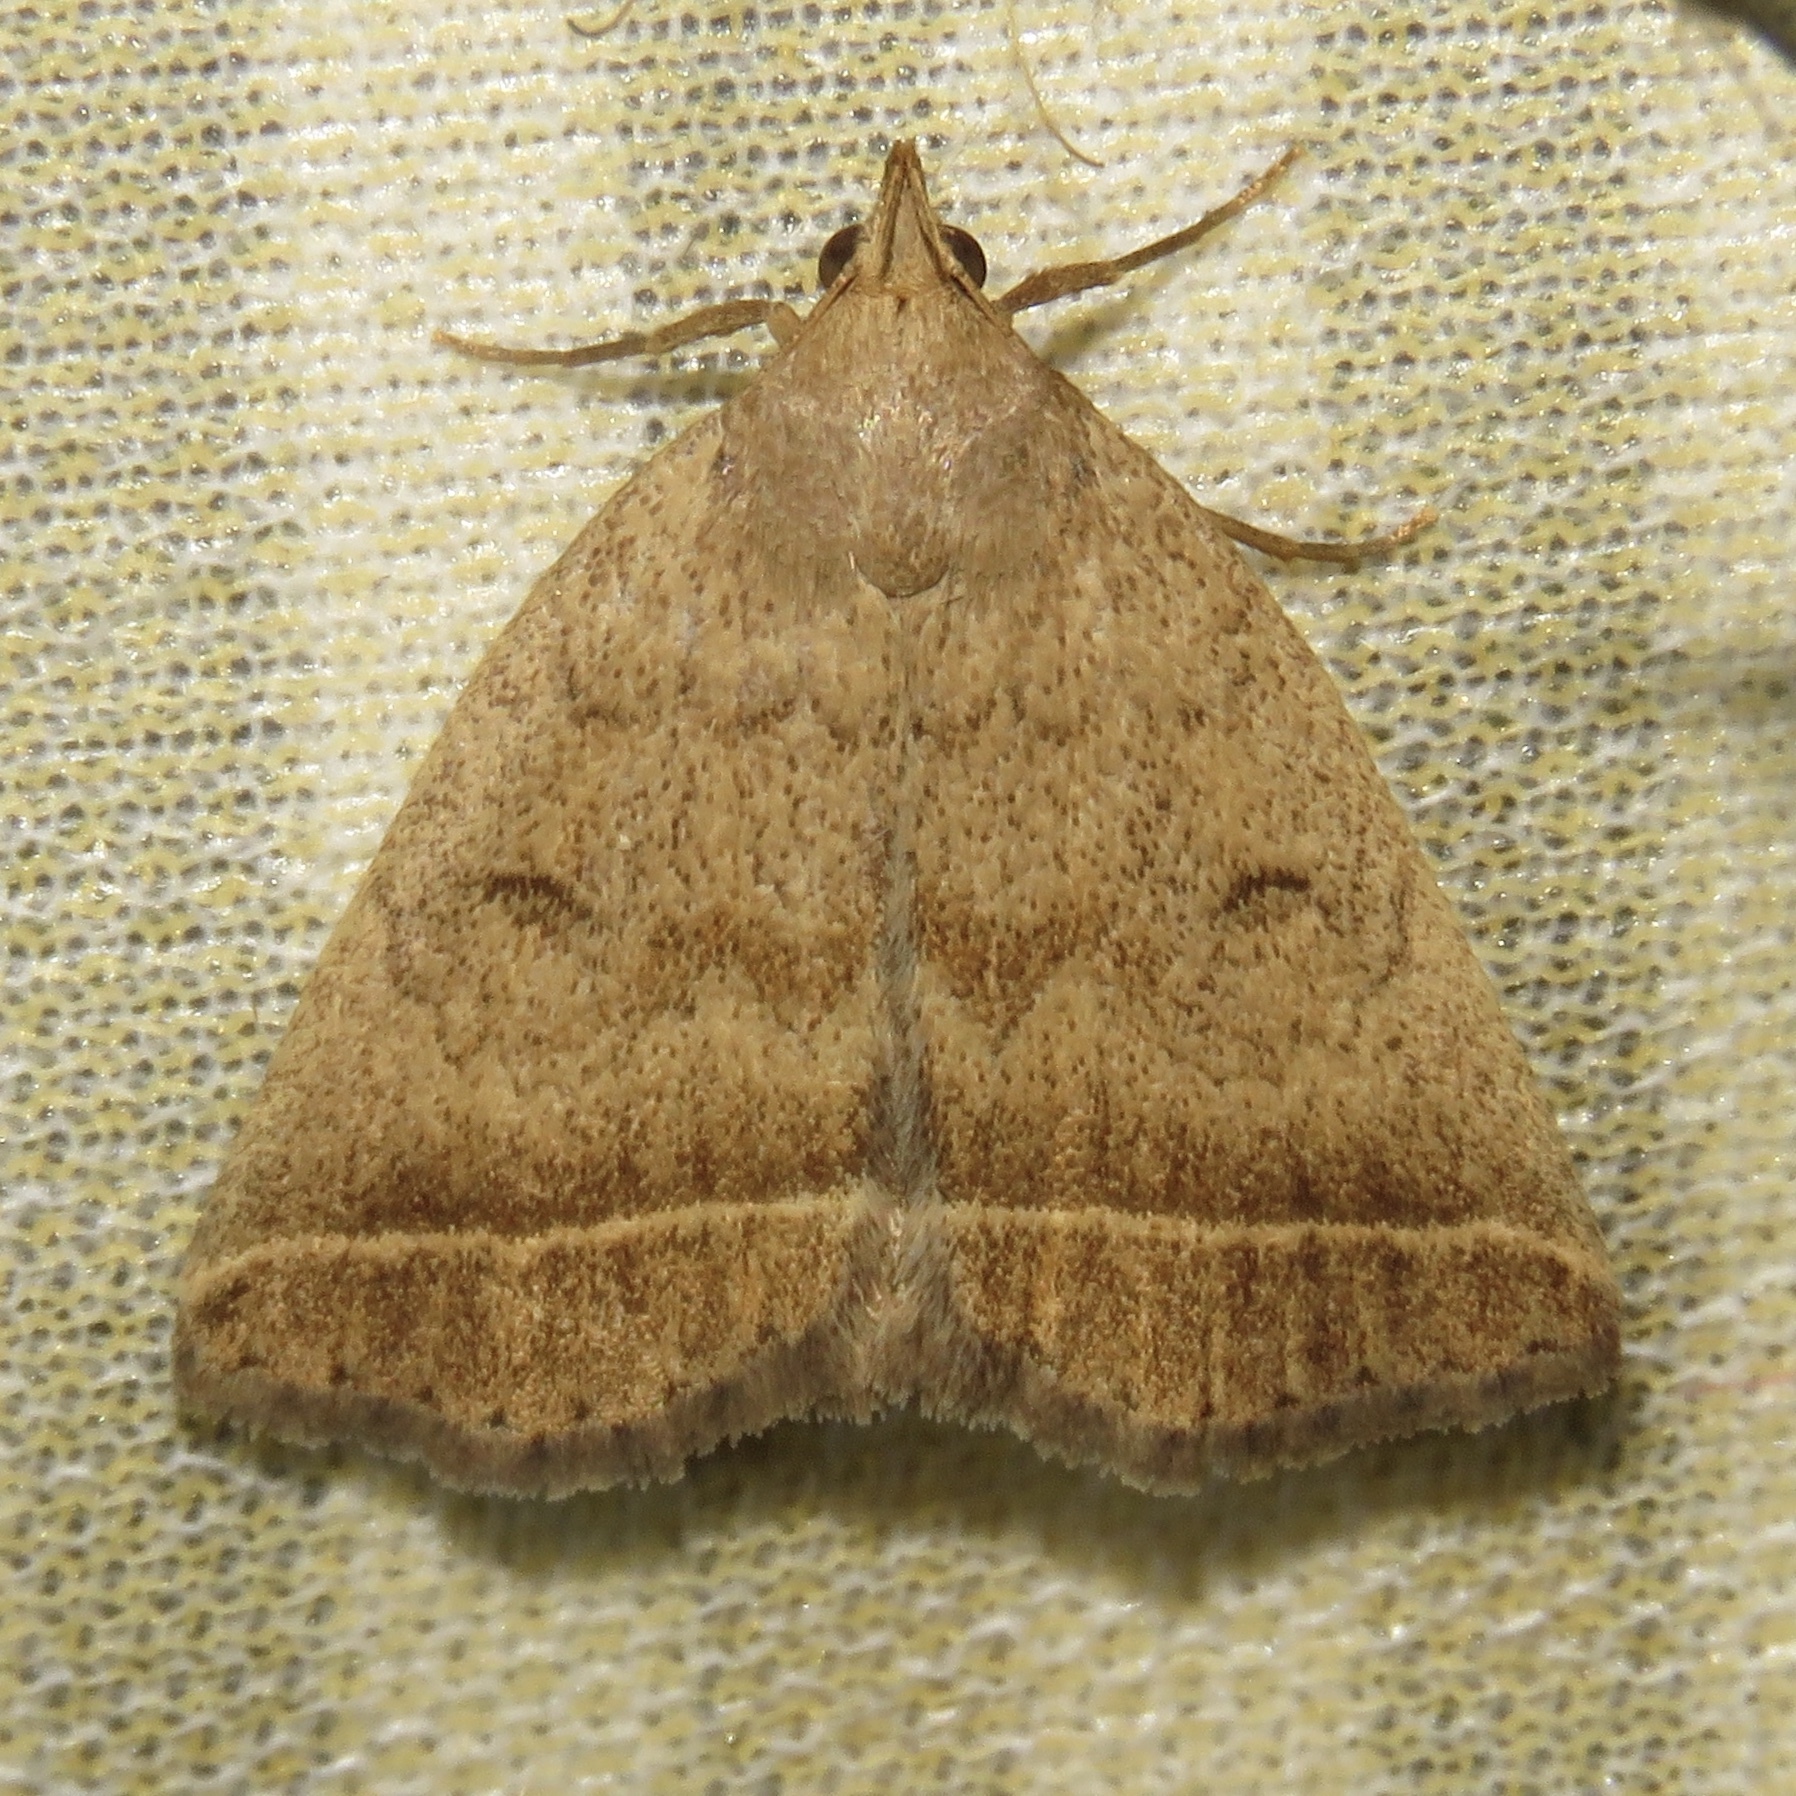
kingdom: Animalia
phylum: Arthropoda
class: Insecta
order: Lepidoptera
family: Erebidae
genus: Zanclognatha
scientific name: Zanclognatha jacchusalis
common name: Yellowish zanclognatha
